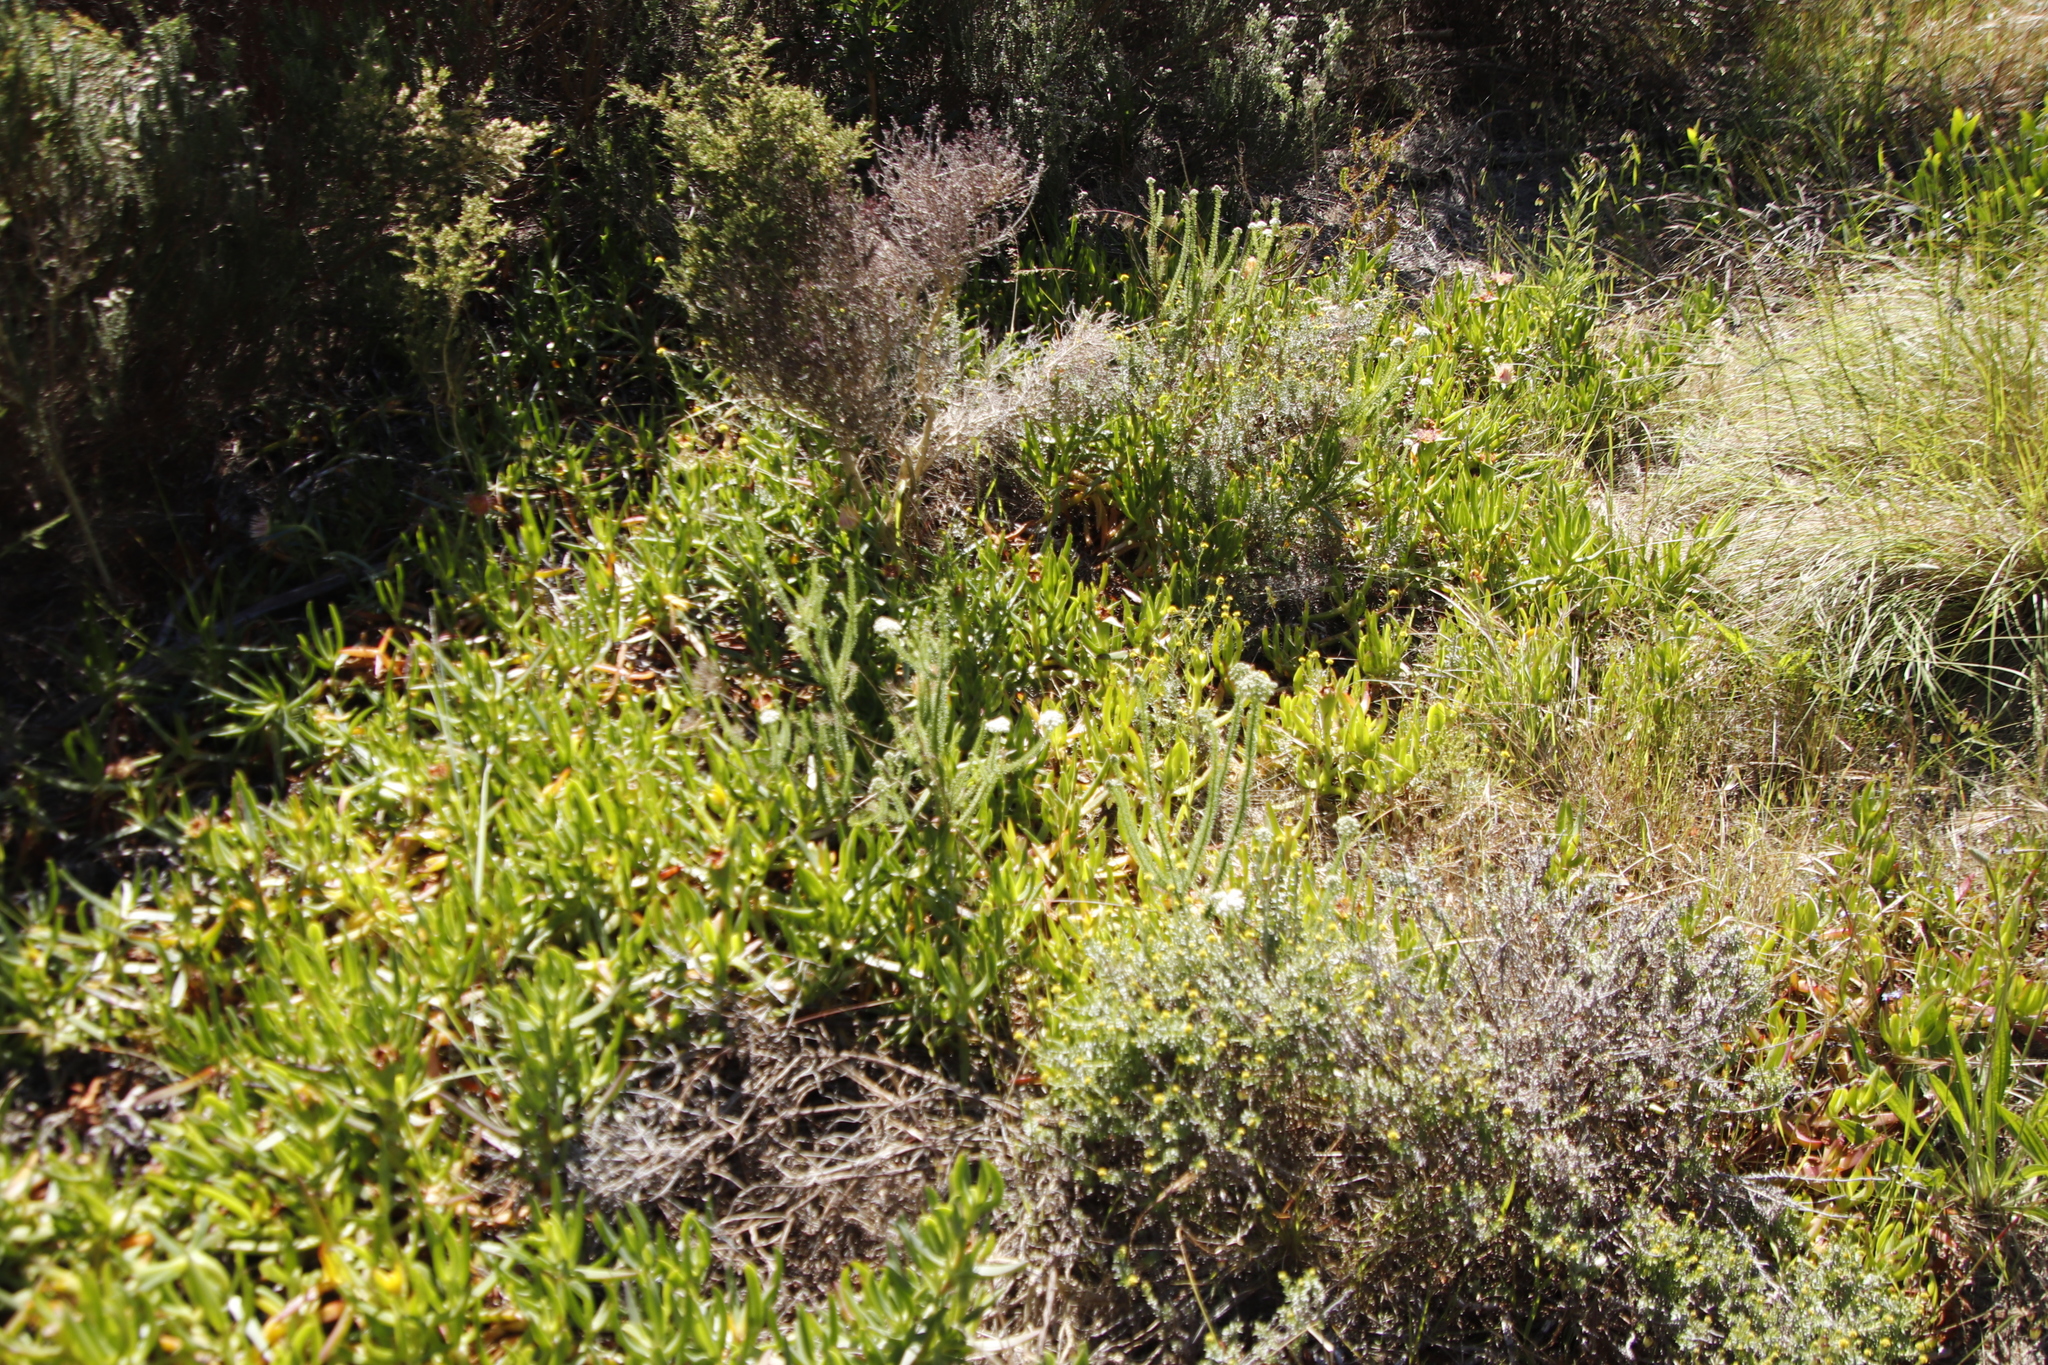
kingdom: Plantae
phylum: Tracheophyta
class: Magnoliopsida
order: Caryophyllales
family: Aizoaceae
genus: Carpobrotus
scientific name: Carpobrotus edulis
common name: Hottentot-fig
